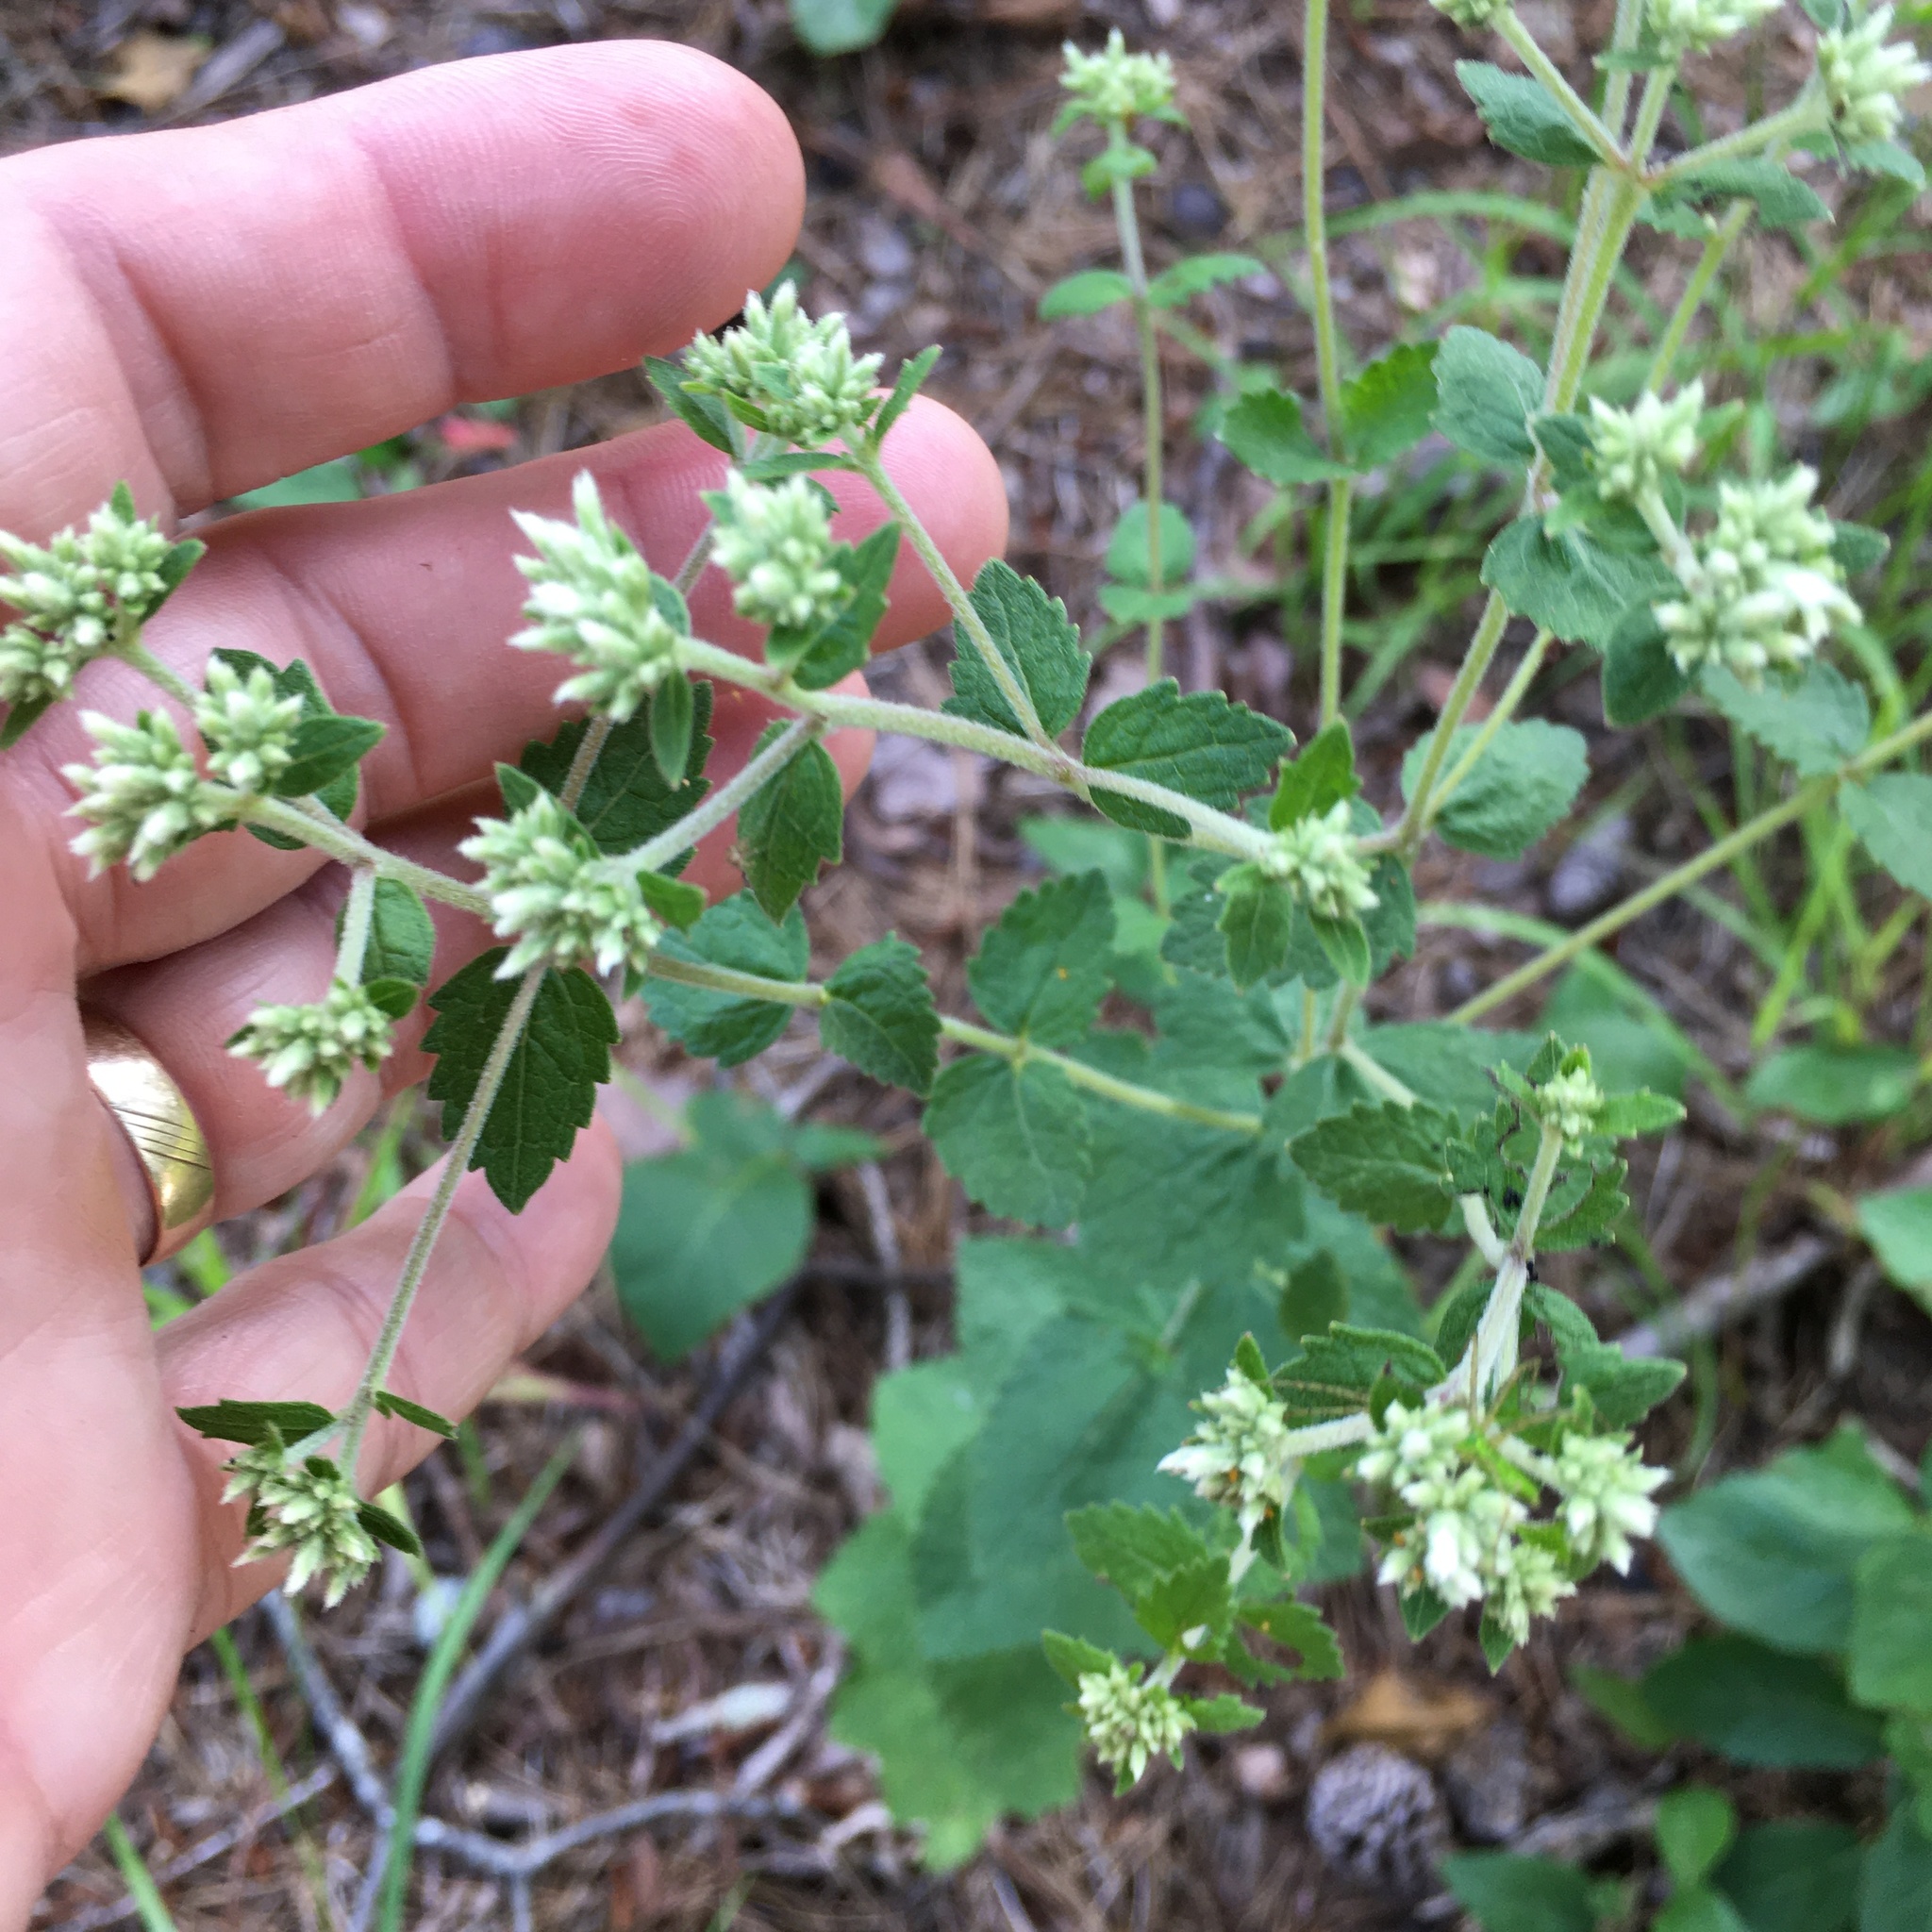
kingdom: Plantae
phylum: Tracheophyta
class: Magnoliopsida
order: Asterales
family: Asteraceae
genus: Eupatorium
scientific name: Eupatorium rotundifolium
